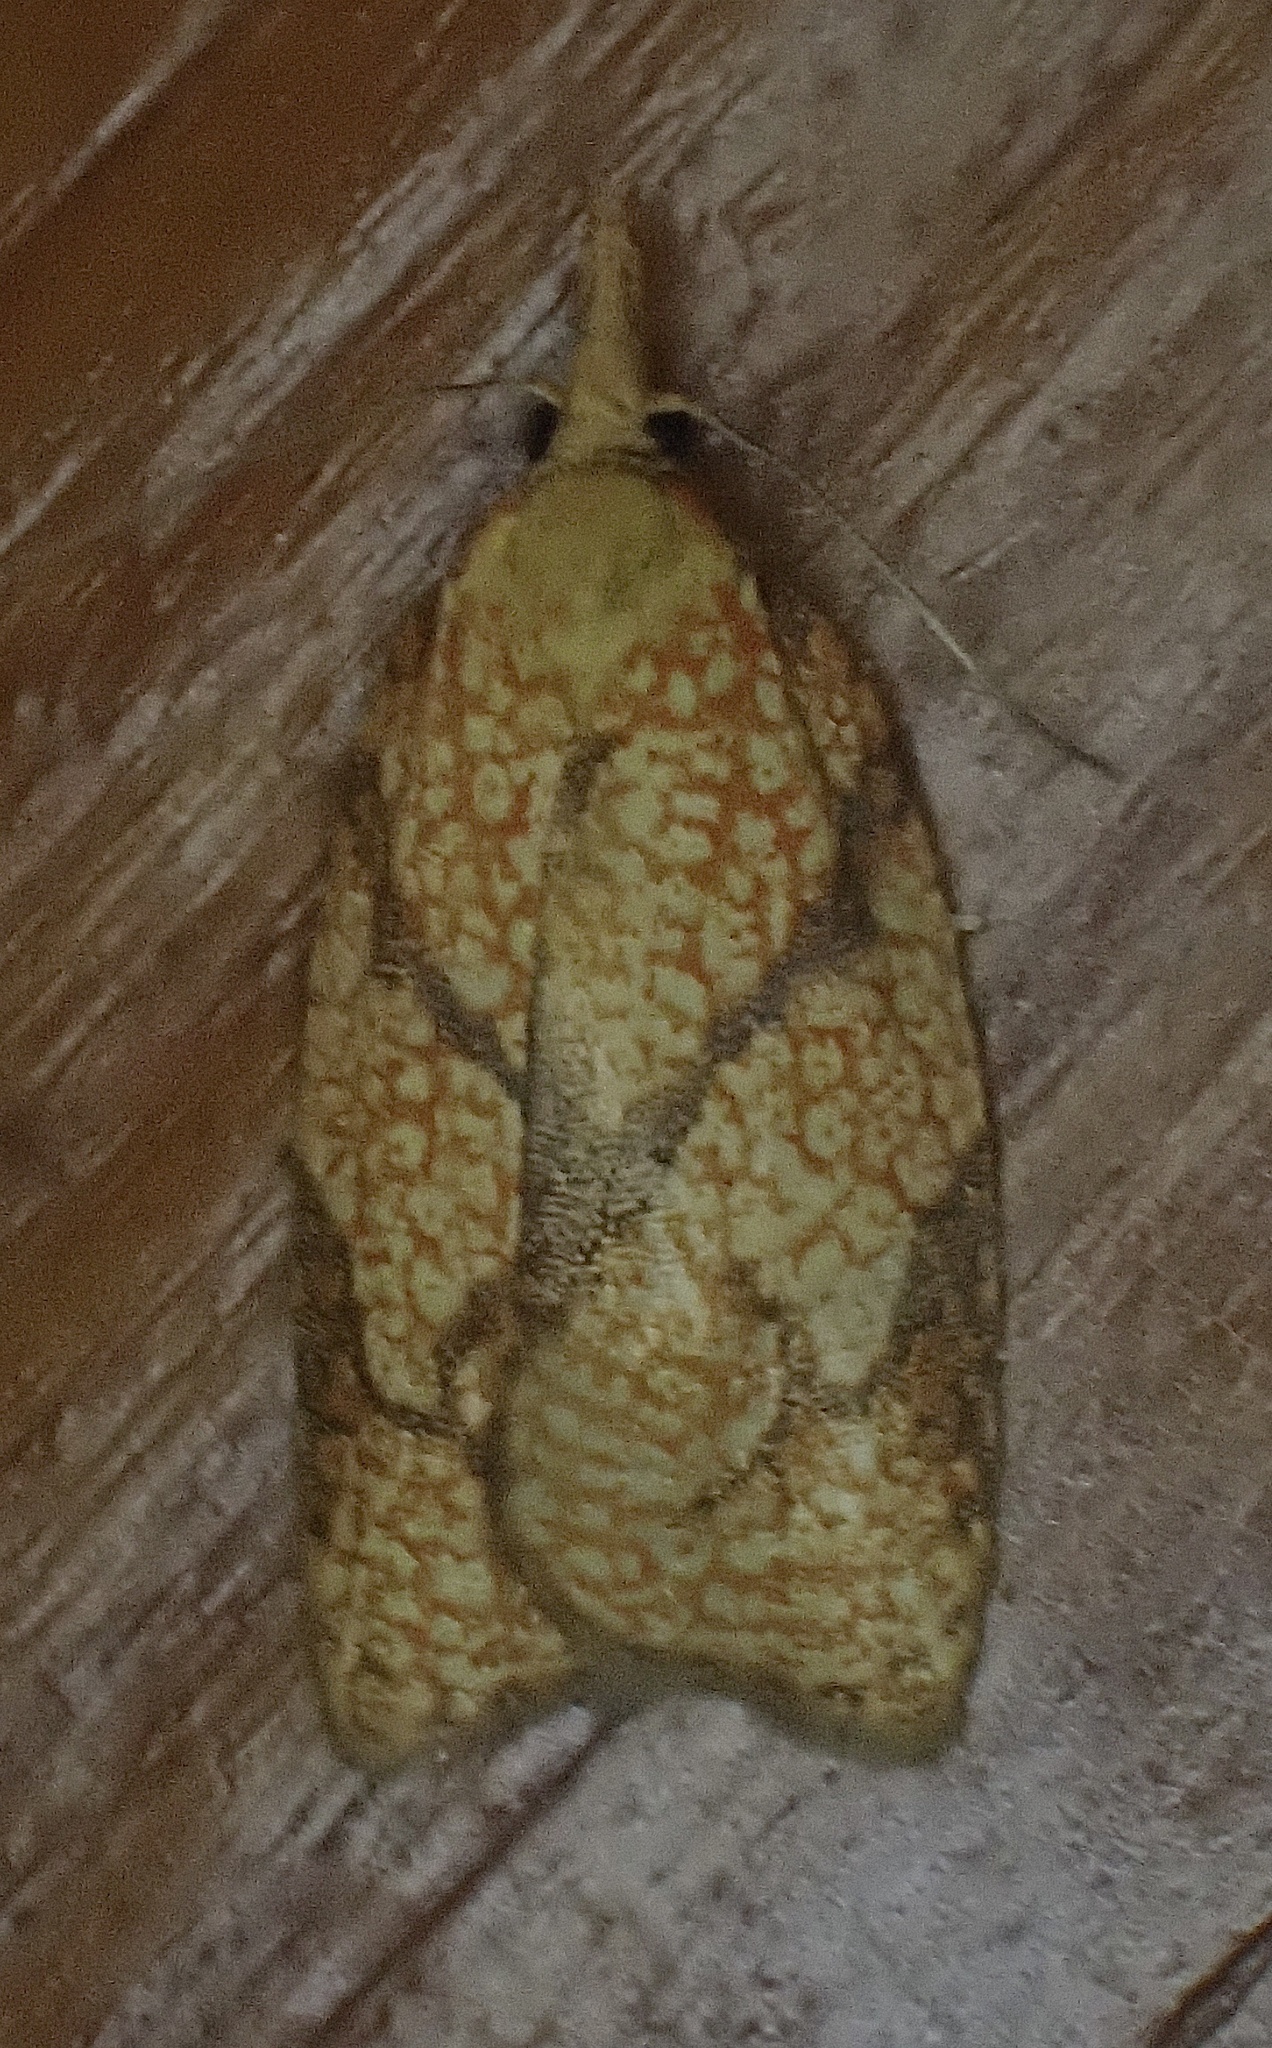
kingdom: Animalia
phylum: Arthropoda
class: Insecta
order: Lepidoptera
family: Tortricidae
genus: Cenopis
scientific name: Cenopis reticulatana
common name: Reticulated fruitworm moth
